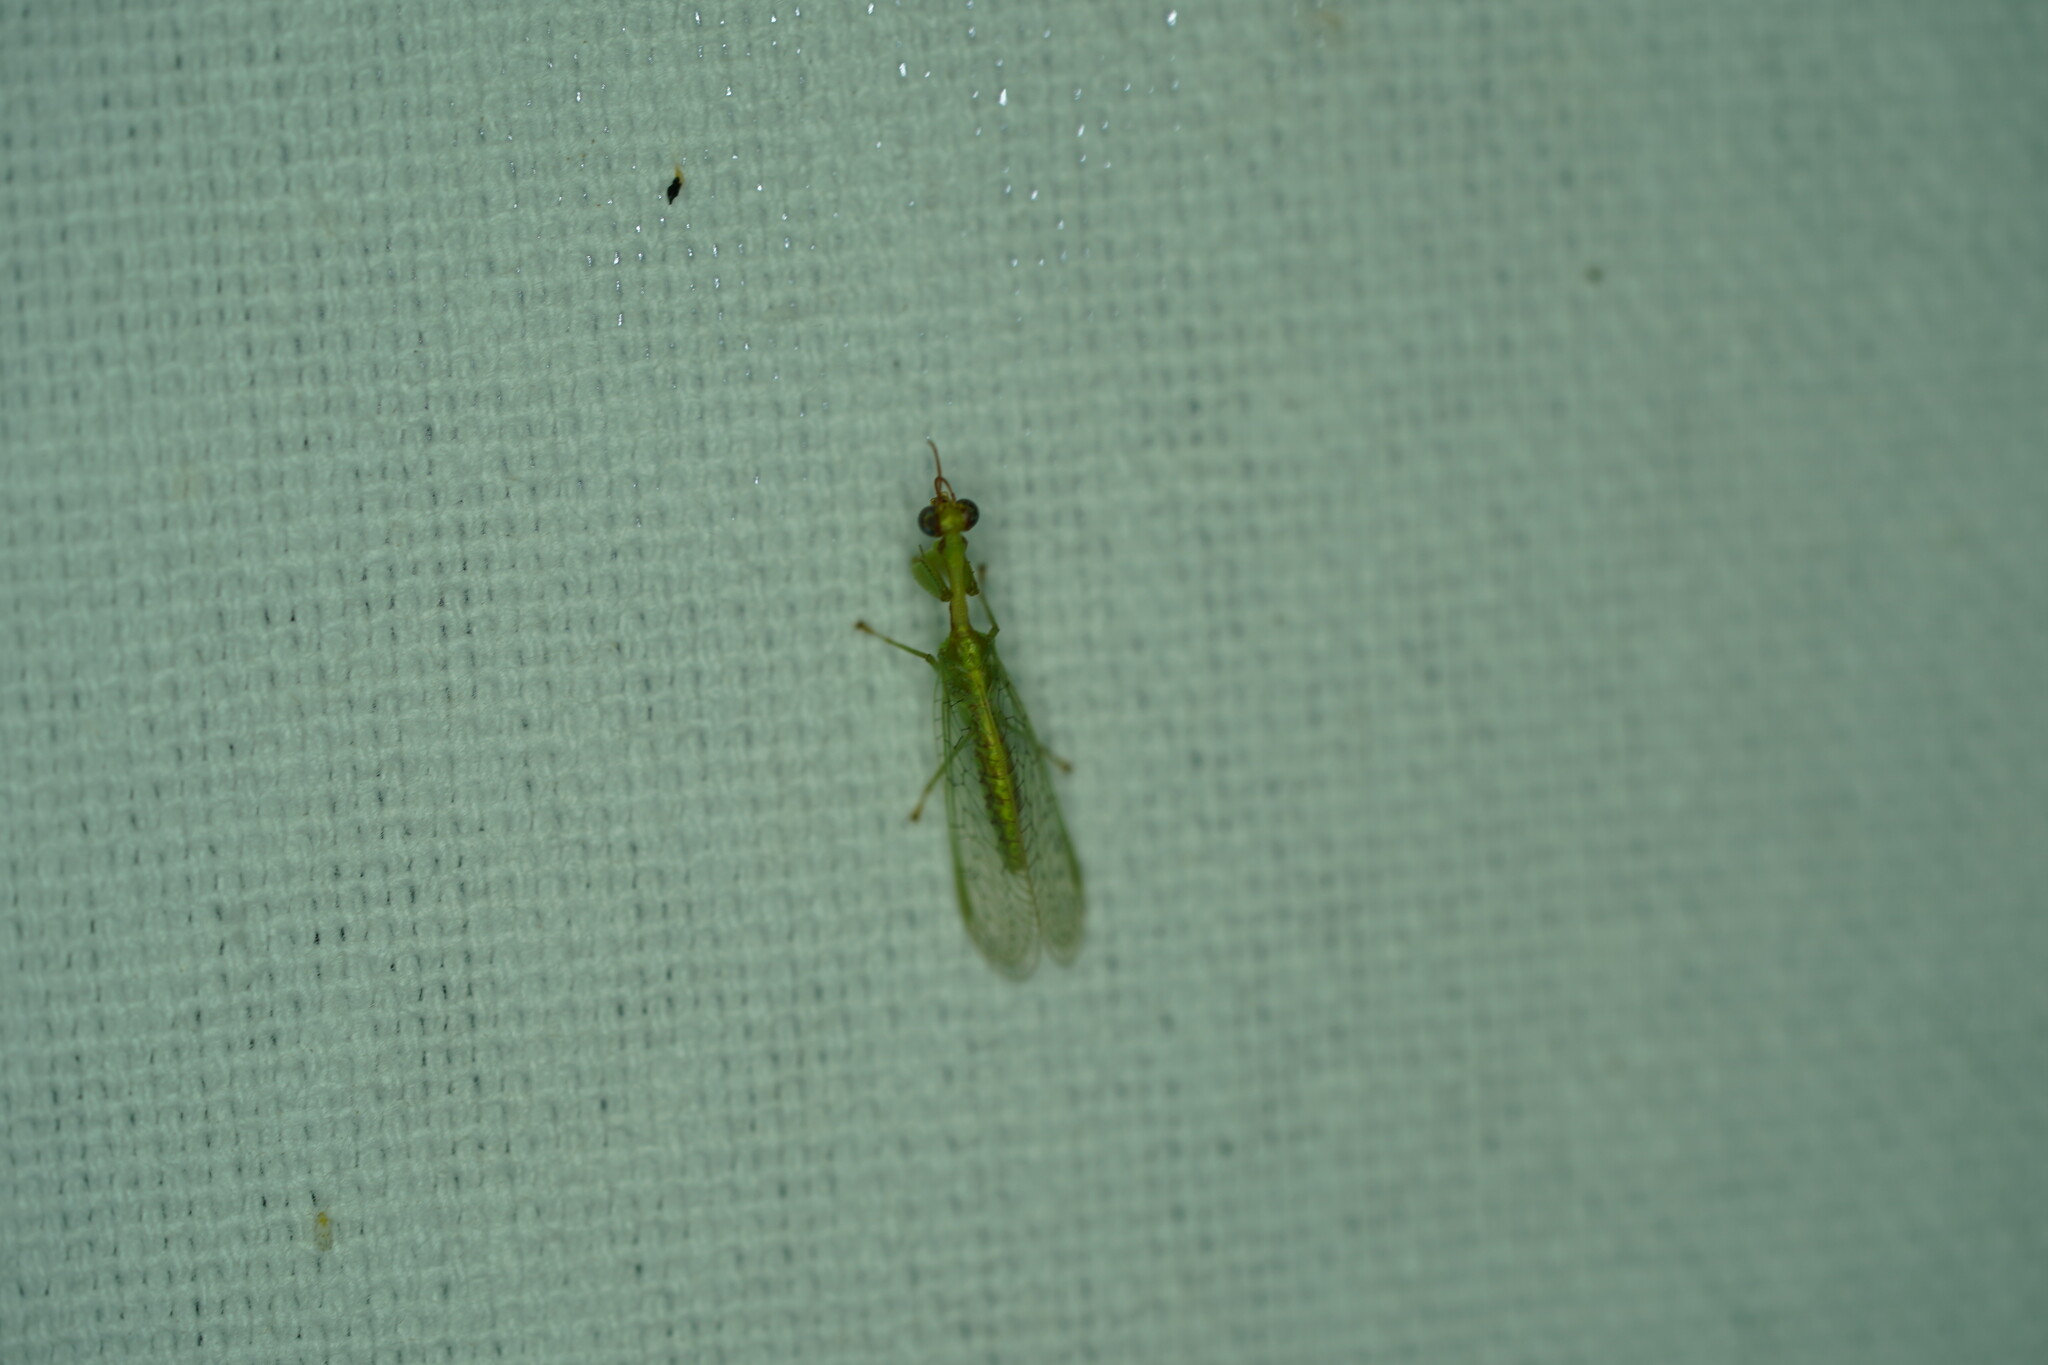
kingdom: Animalia
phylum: Arthropoda
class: Insecta
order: Neuroptera
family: Mantispidae
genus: Zeugomantispa
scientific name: Zeugomantispa minuta
